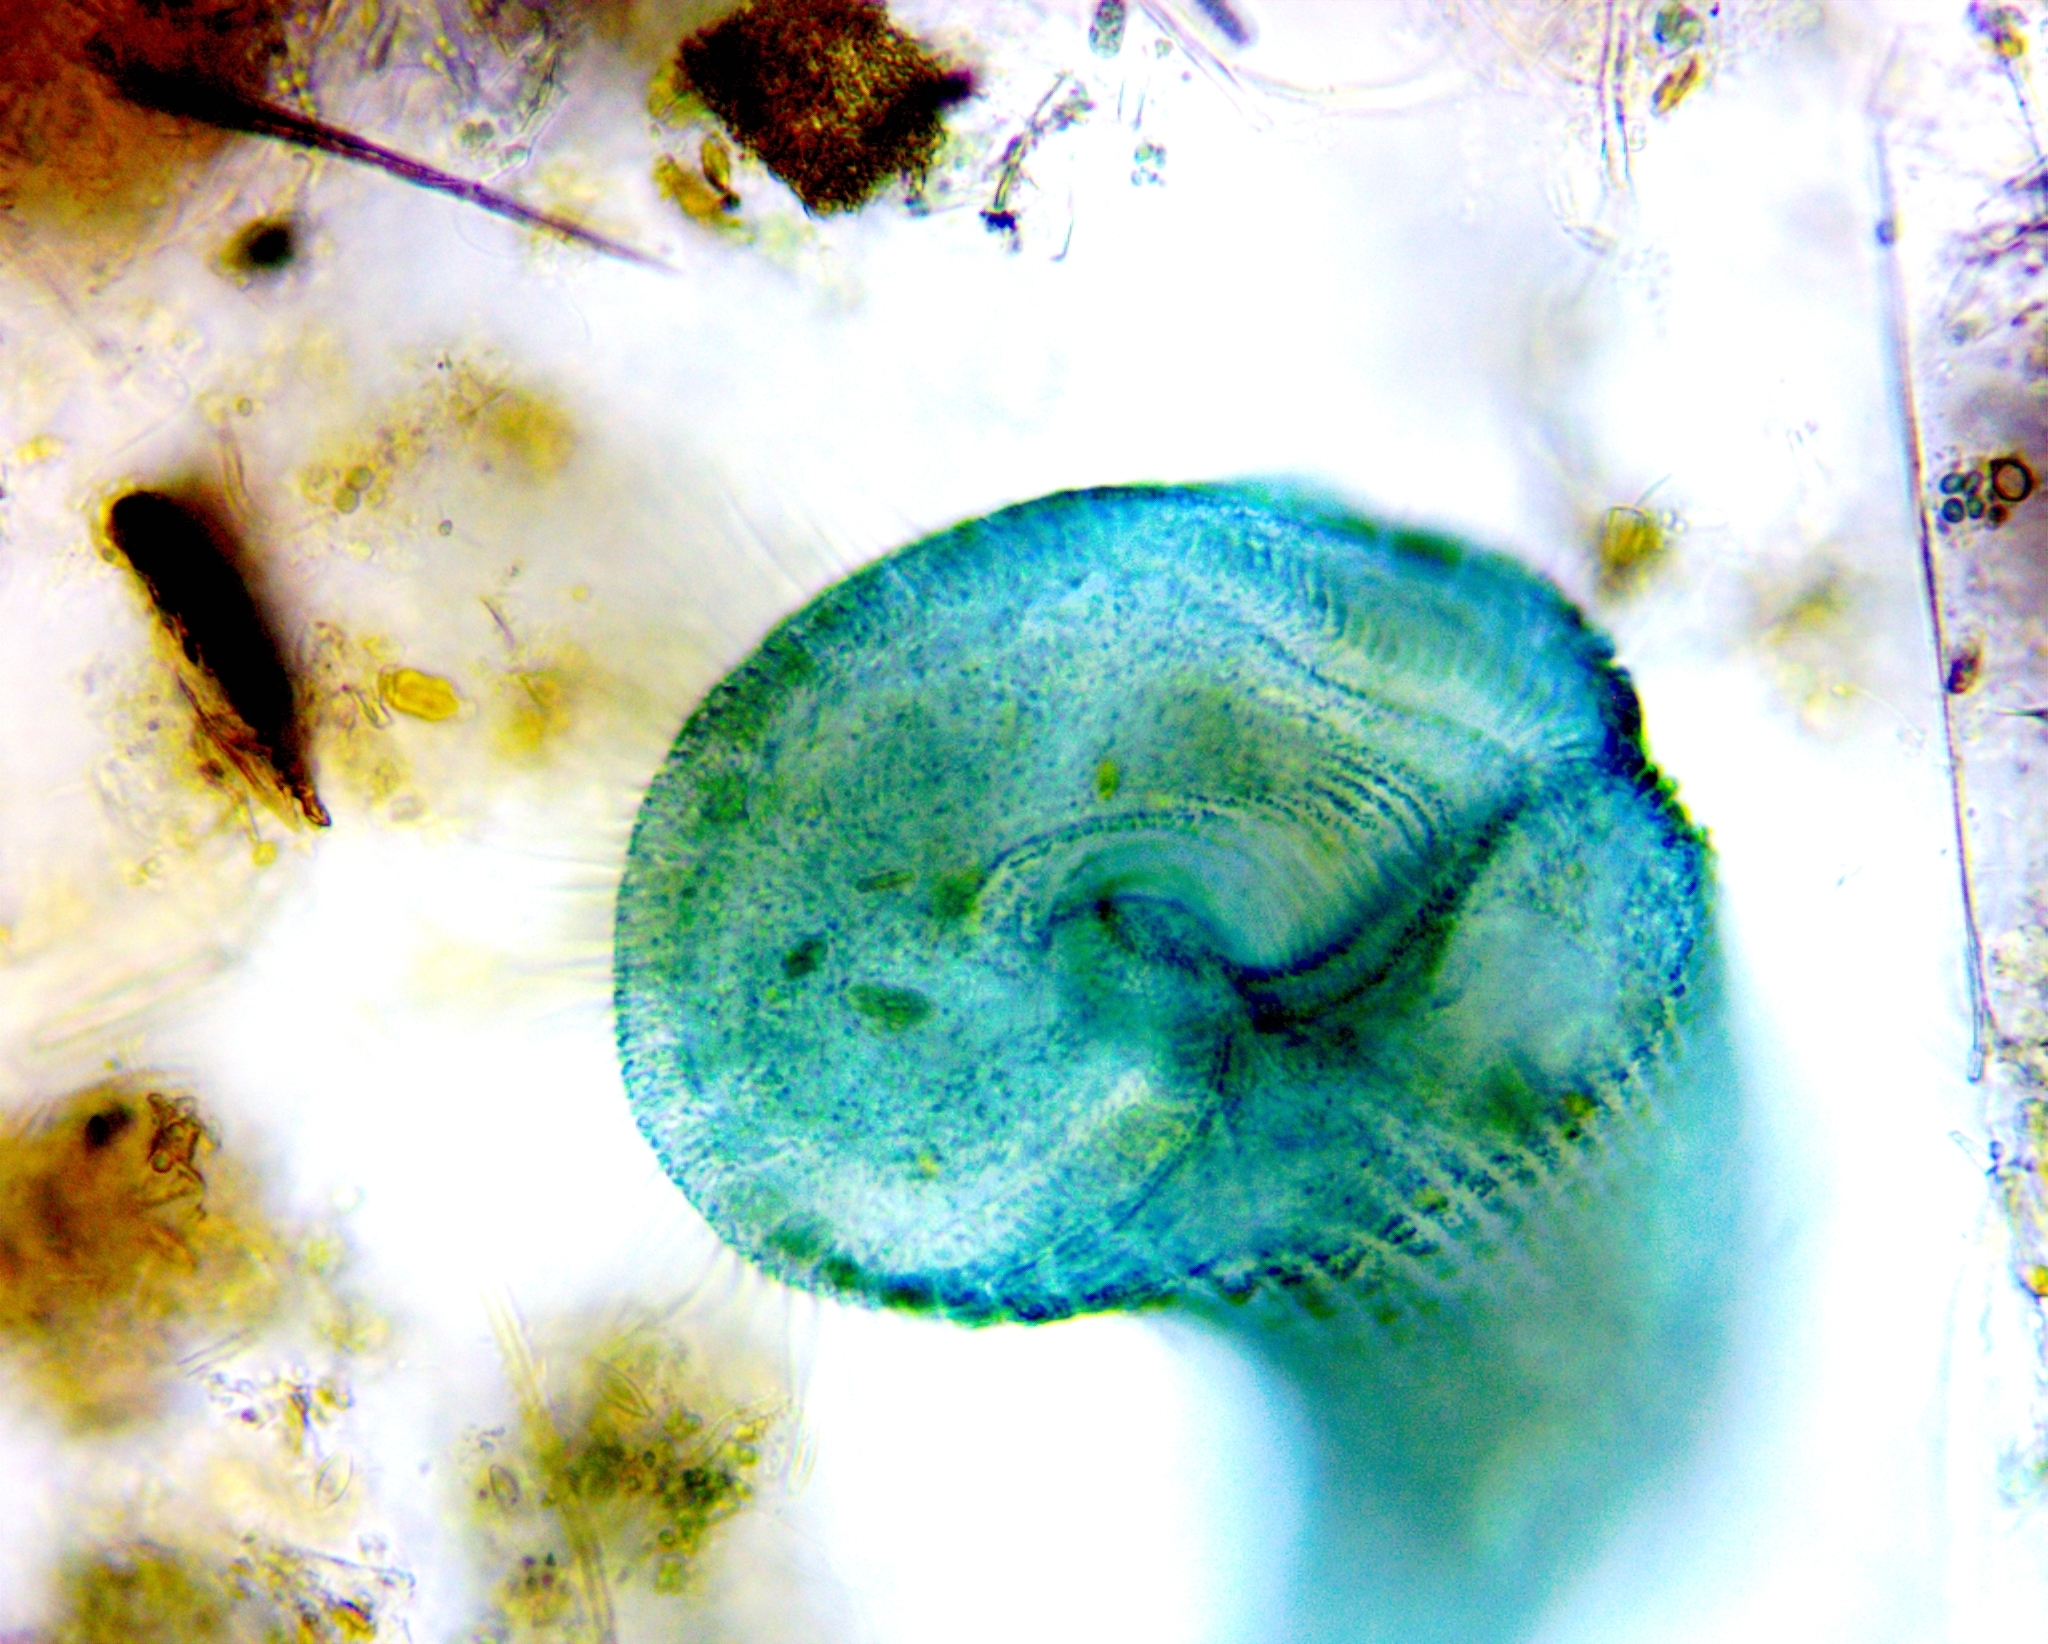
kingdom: Chromista
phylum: Ciliophora
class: Heterotrichea
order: Heterotrichida
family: Stentoridae
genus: Stentor
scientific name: Stentor coeruleus
